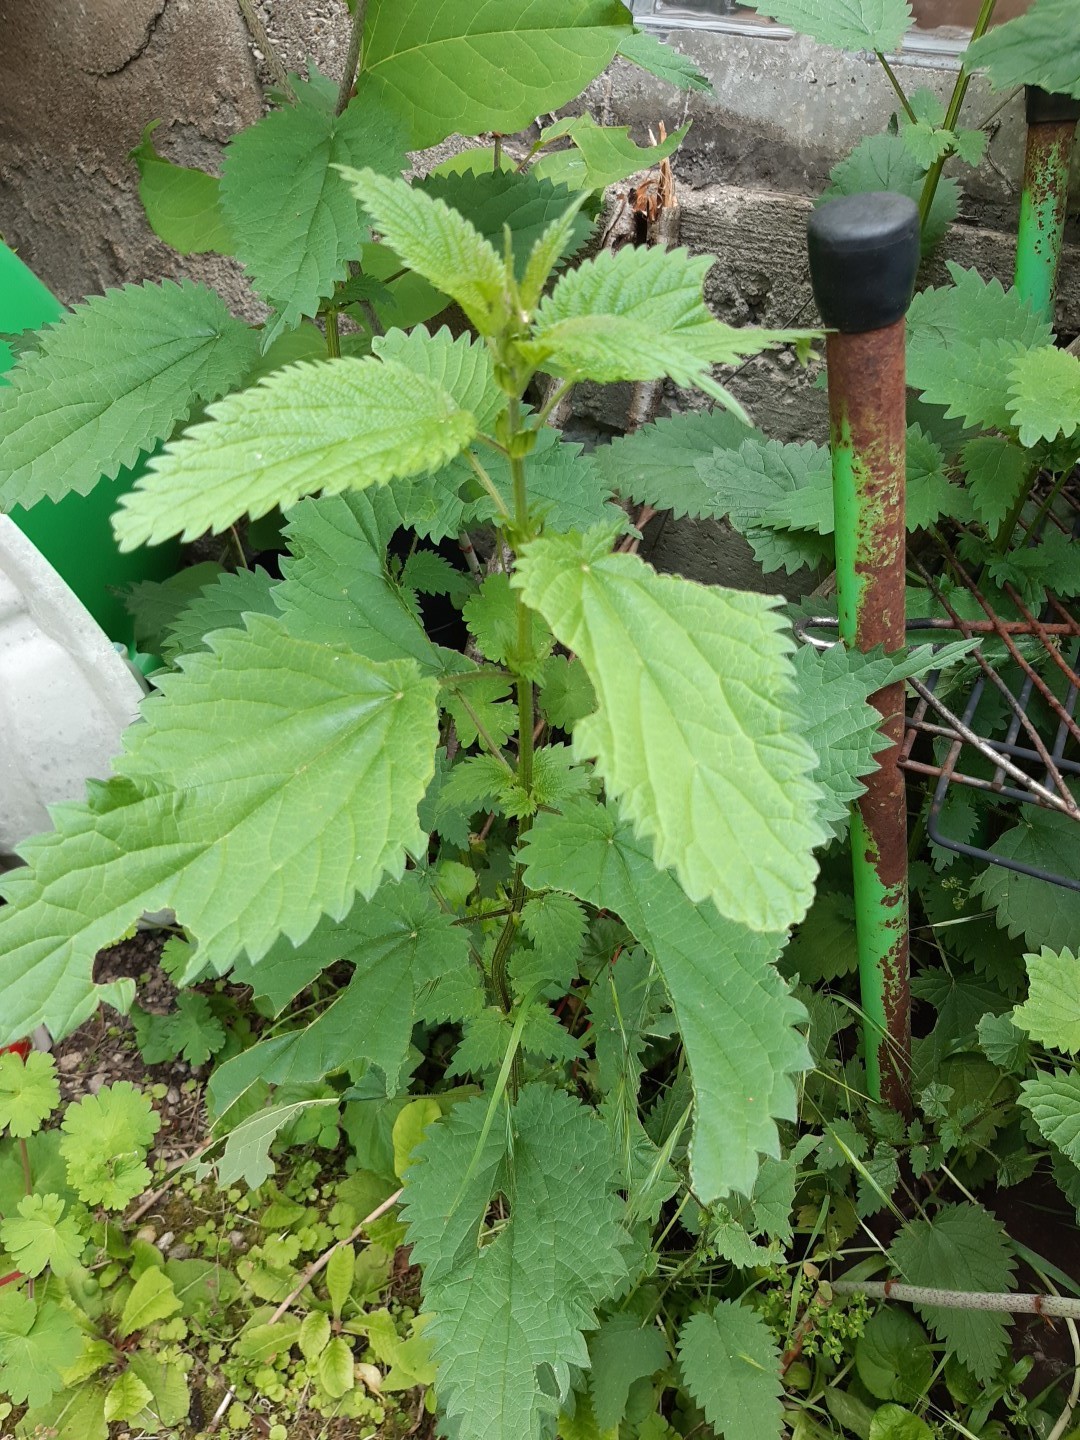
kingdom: Plantae
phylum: Tracheophyta
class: Magnoliopsida
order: Rosales
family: Urticaceae
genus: Urtica
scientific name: Urtica dioica
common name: Common nettle
